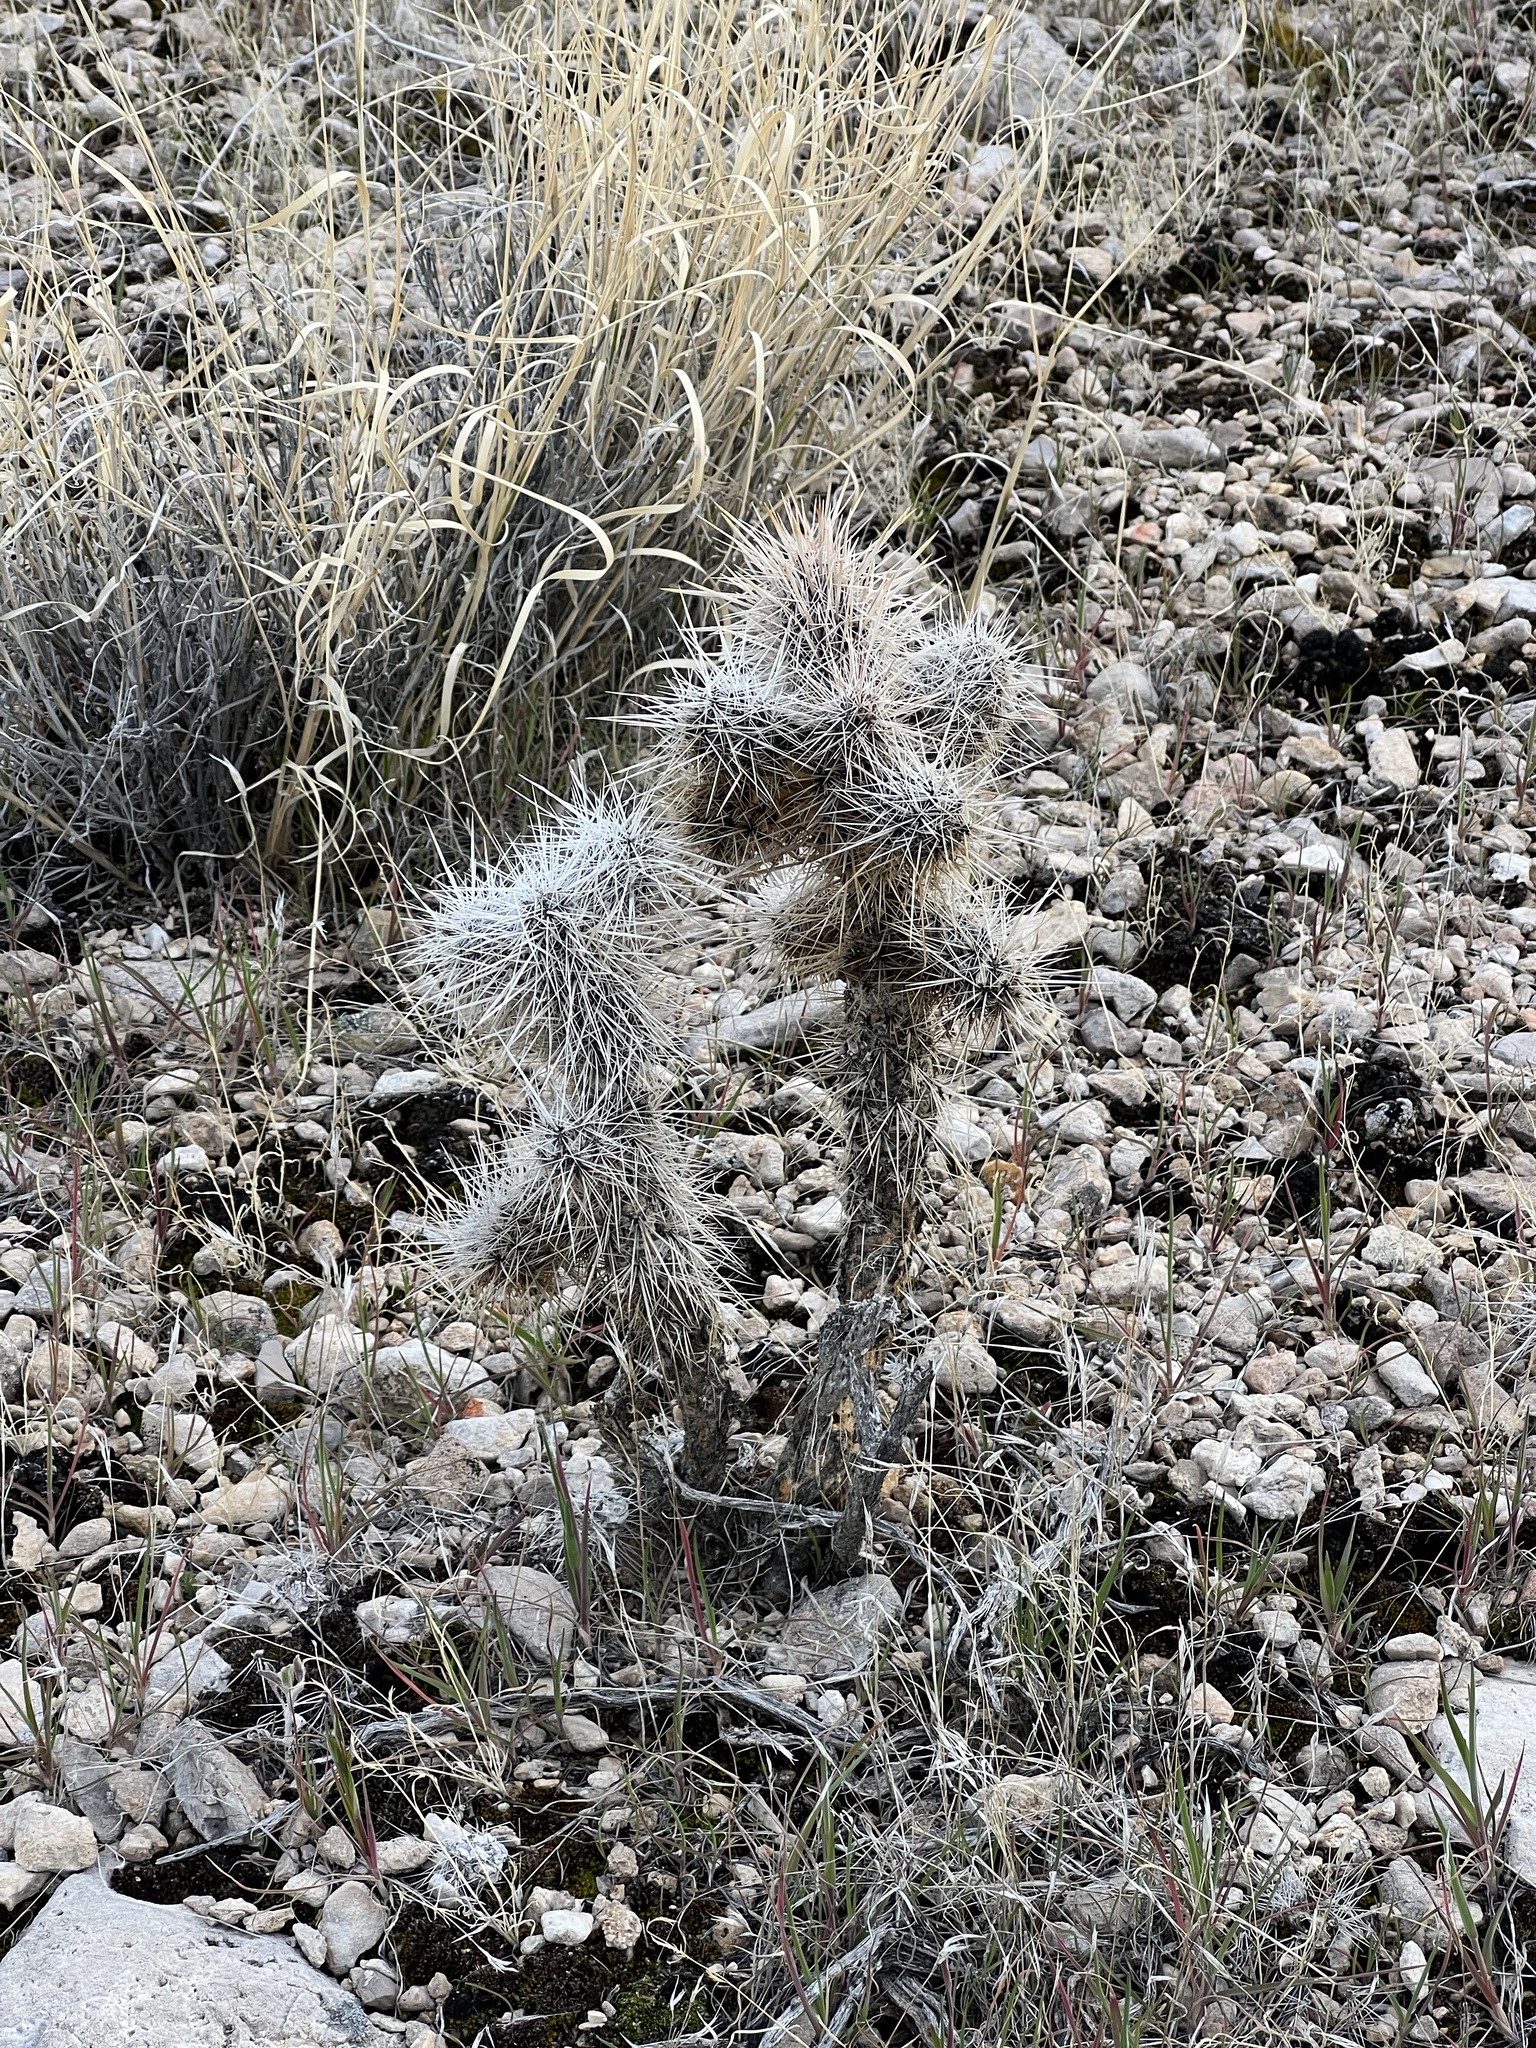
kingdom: Plantae
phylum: Tracheophyta
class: Magnoliopsida
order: Caryophyllales
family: Cactaceae
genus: Cylindropuntia
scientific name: Cylindropuntia echinocarpa
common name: Ground cholla
